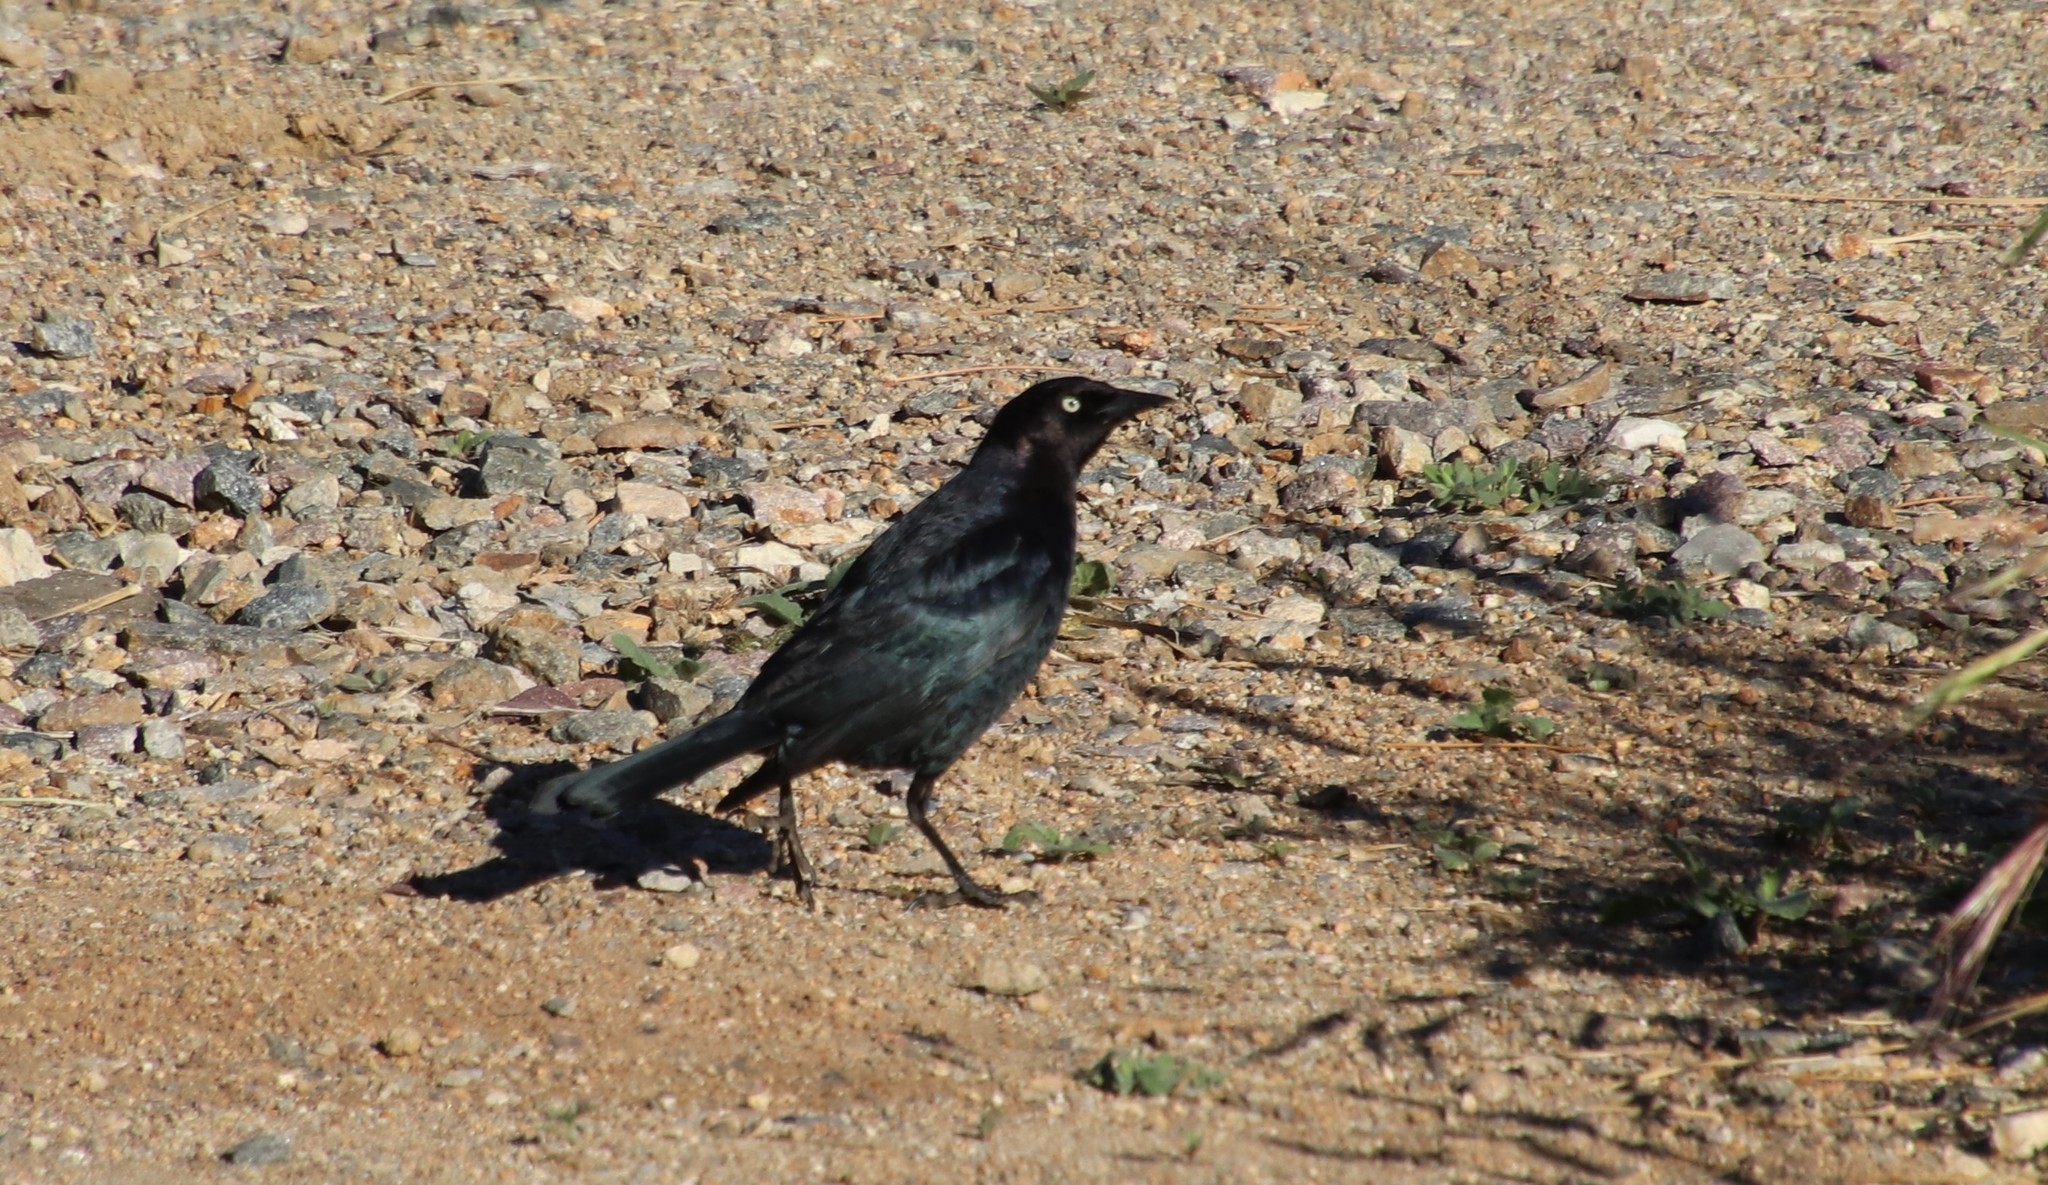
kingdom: Animalia
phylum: Chordata
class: Aves
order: Passeriformes
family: Icteridae
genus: Euphagus
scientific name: Euphagus cyanocephalus
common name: Brewer's blackbird
